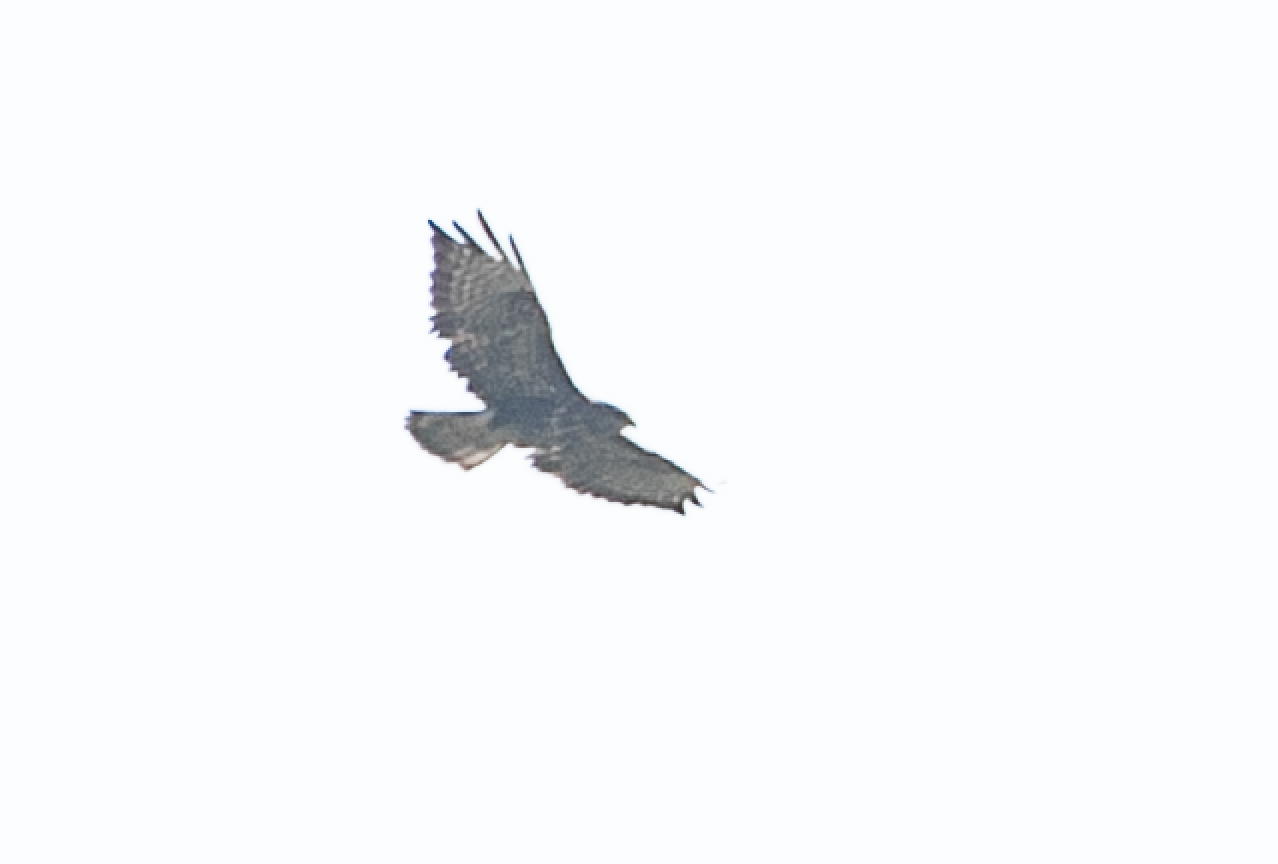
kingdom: Animalia
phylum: Chordata
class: Aves
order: Accipitriformes
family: Accipitridae
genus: Buteo
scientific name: Buteo buteo
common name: Common buzzard
